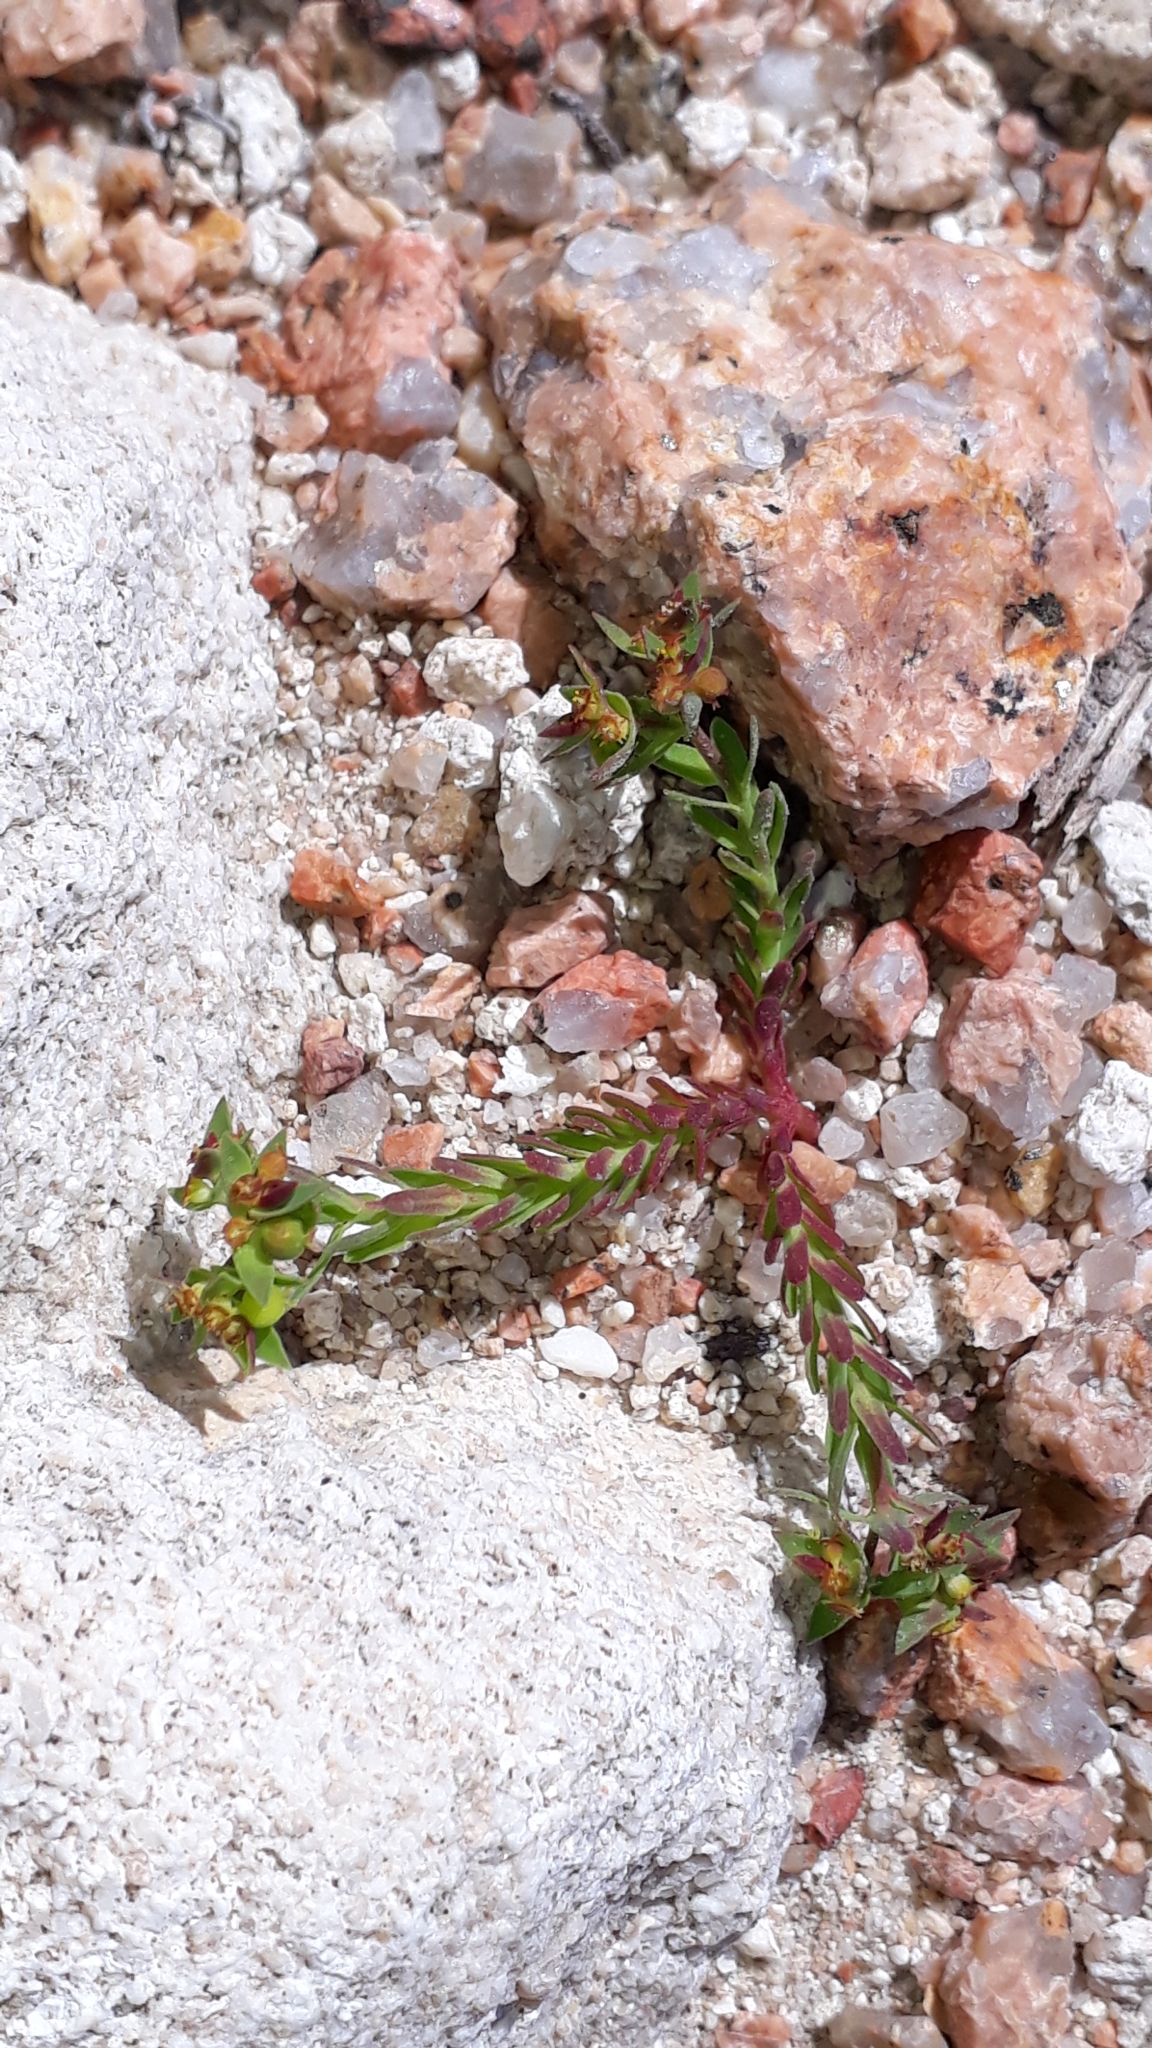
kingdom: Plantae
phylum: Tracheophyta
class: Magnoliopsida
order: Malpighiales
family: Euphorbiaceae
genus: Euphorbia
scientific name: Euphorbia exigua
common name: Dwarf spurge
